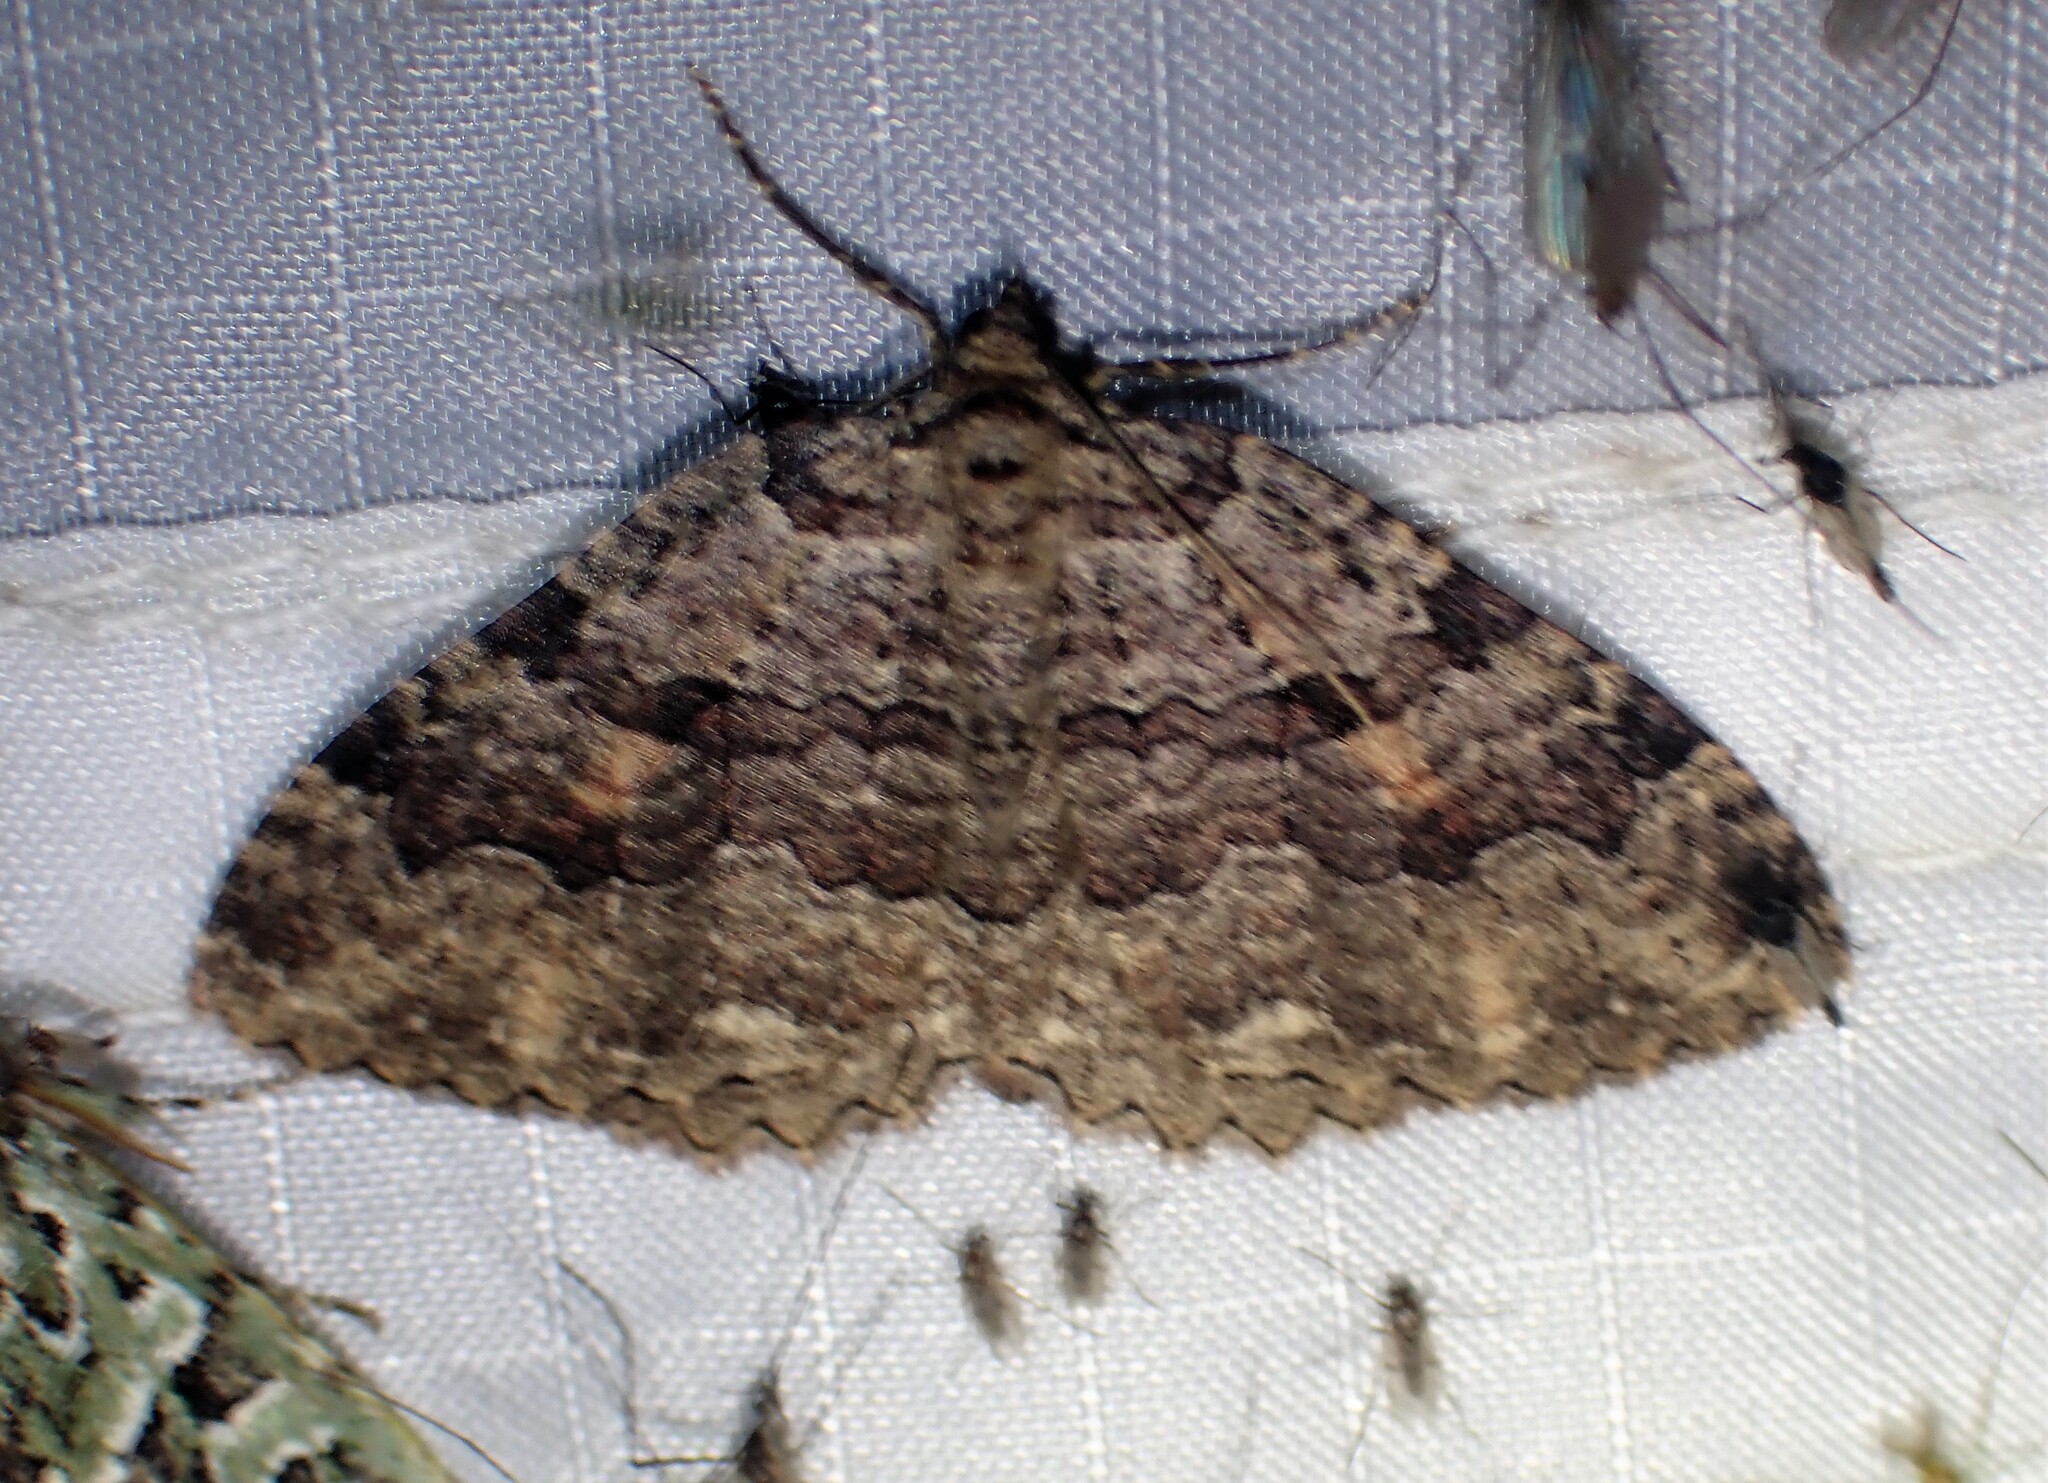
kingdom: Animalia
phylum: Arthropoda
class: Insecta
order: Lepidoptera
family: Geometridae
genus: Triphosa
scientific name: Triphosa haesitata
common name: Tissue moth
